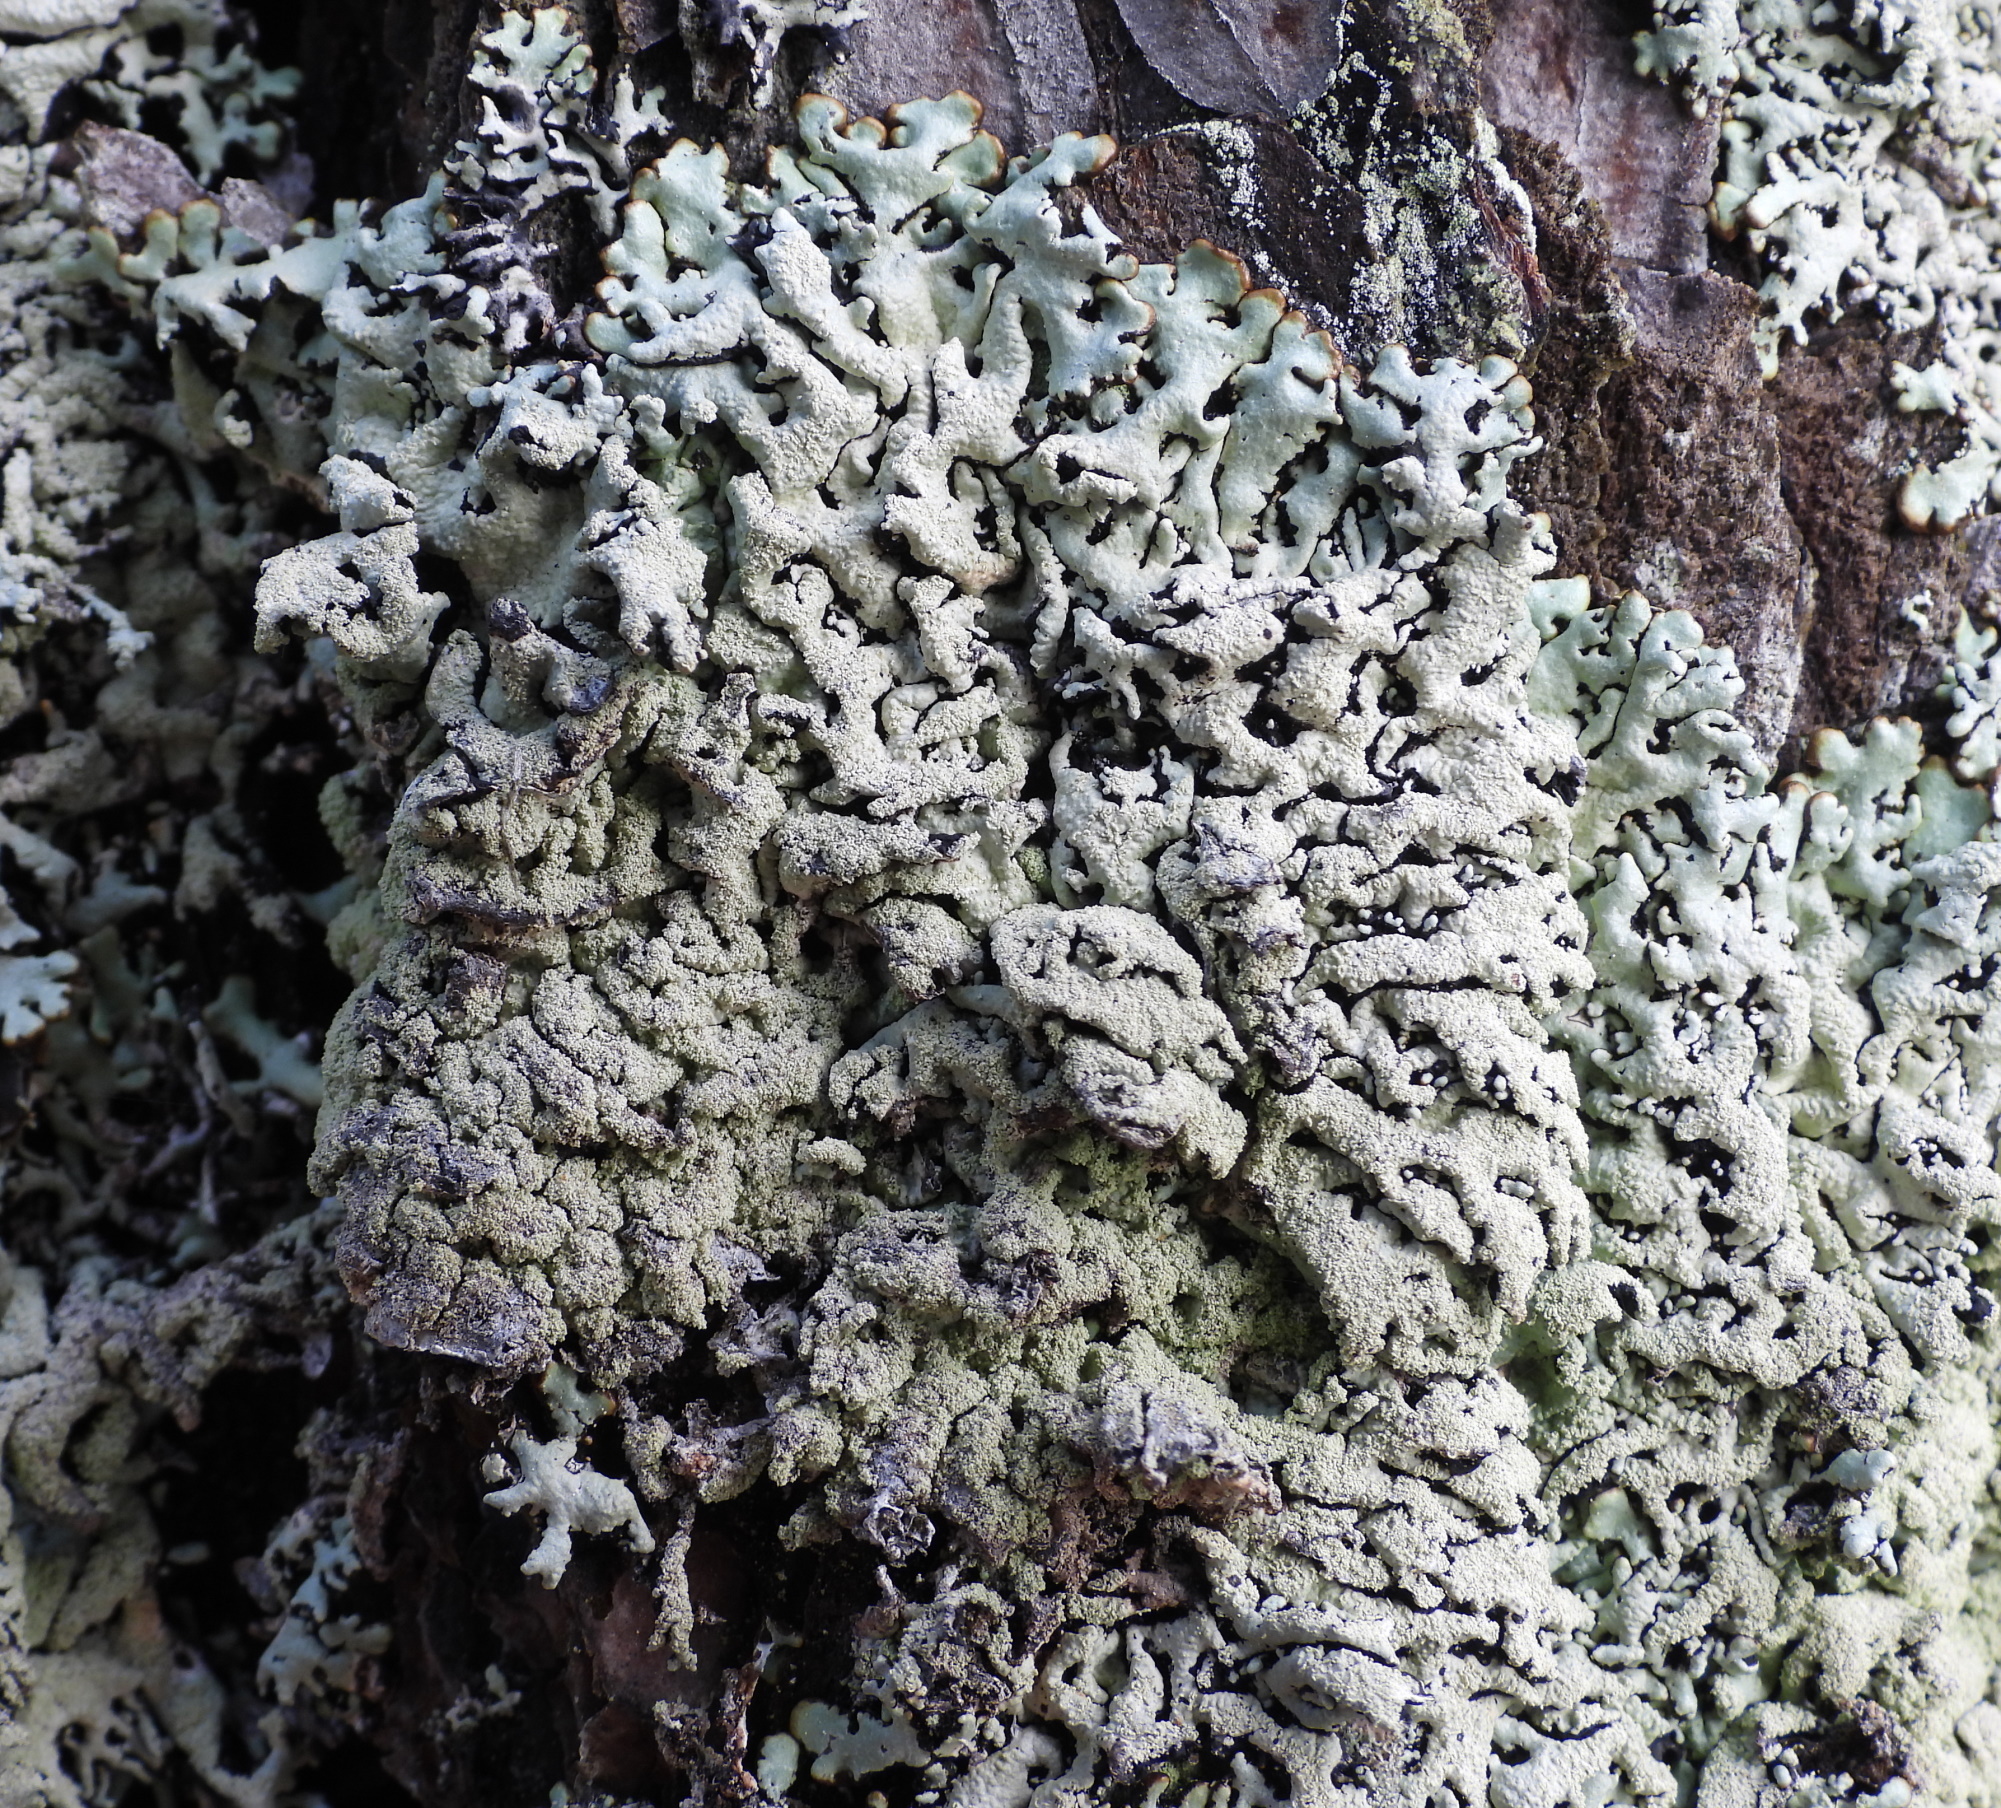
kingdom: Fungi
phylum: Ascomycota
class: Lecanoromycetes
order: Lecanorales
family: Parmeliaceae
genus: Hypogymnia
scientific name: Hypogymnia farinacea
